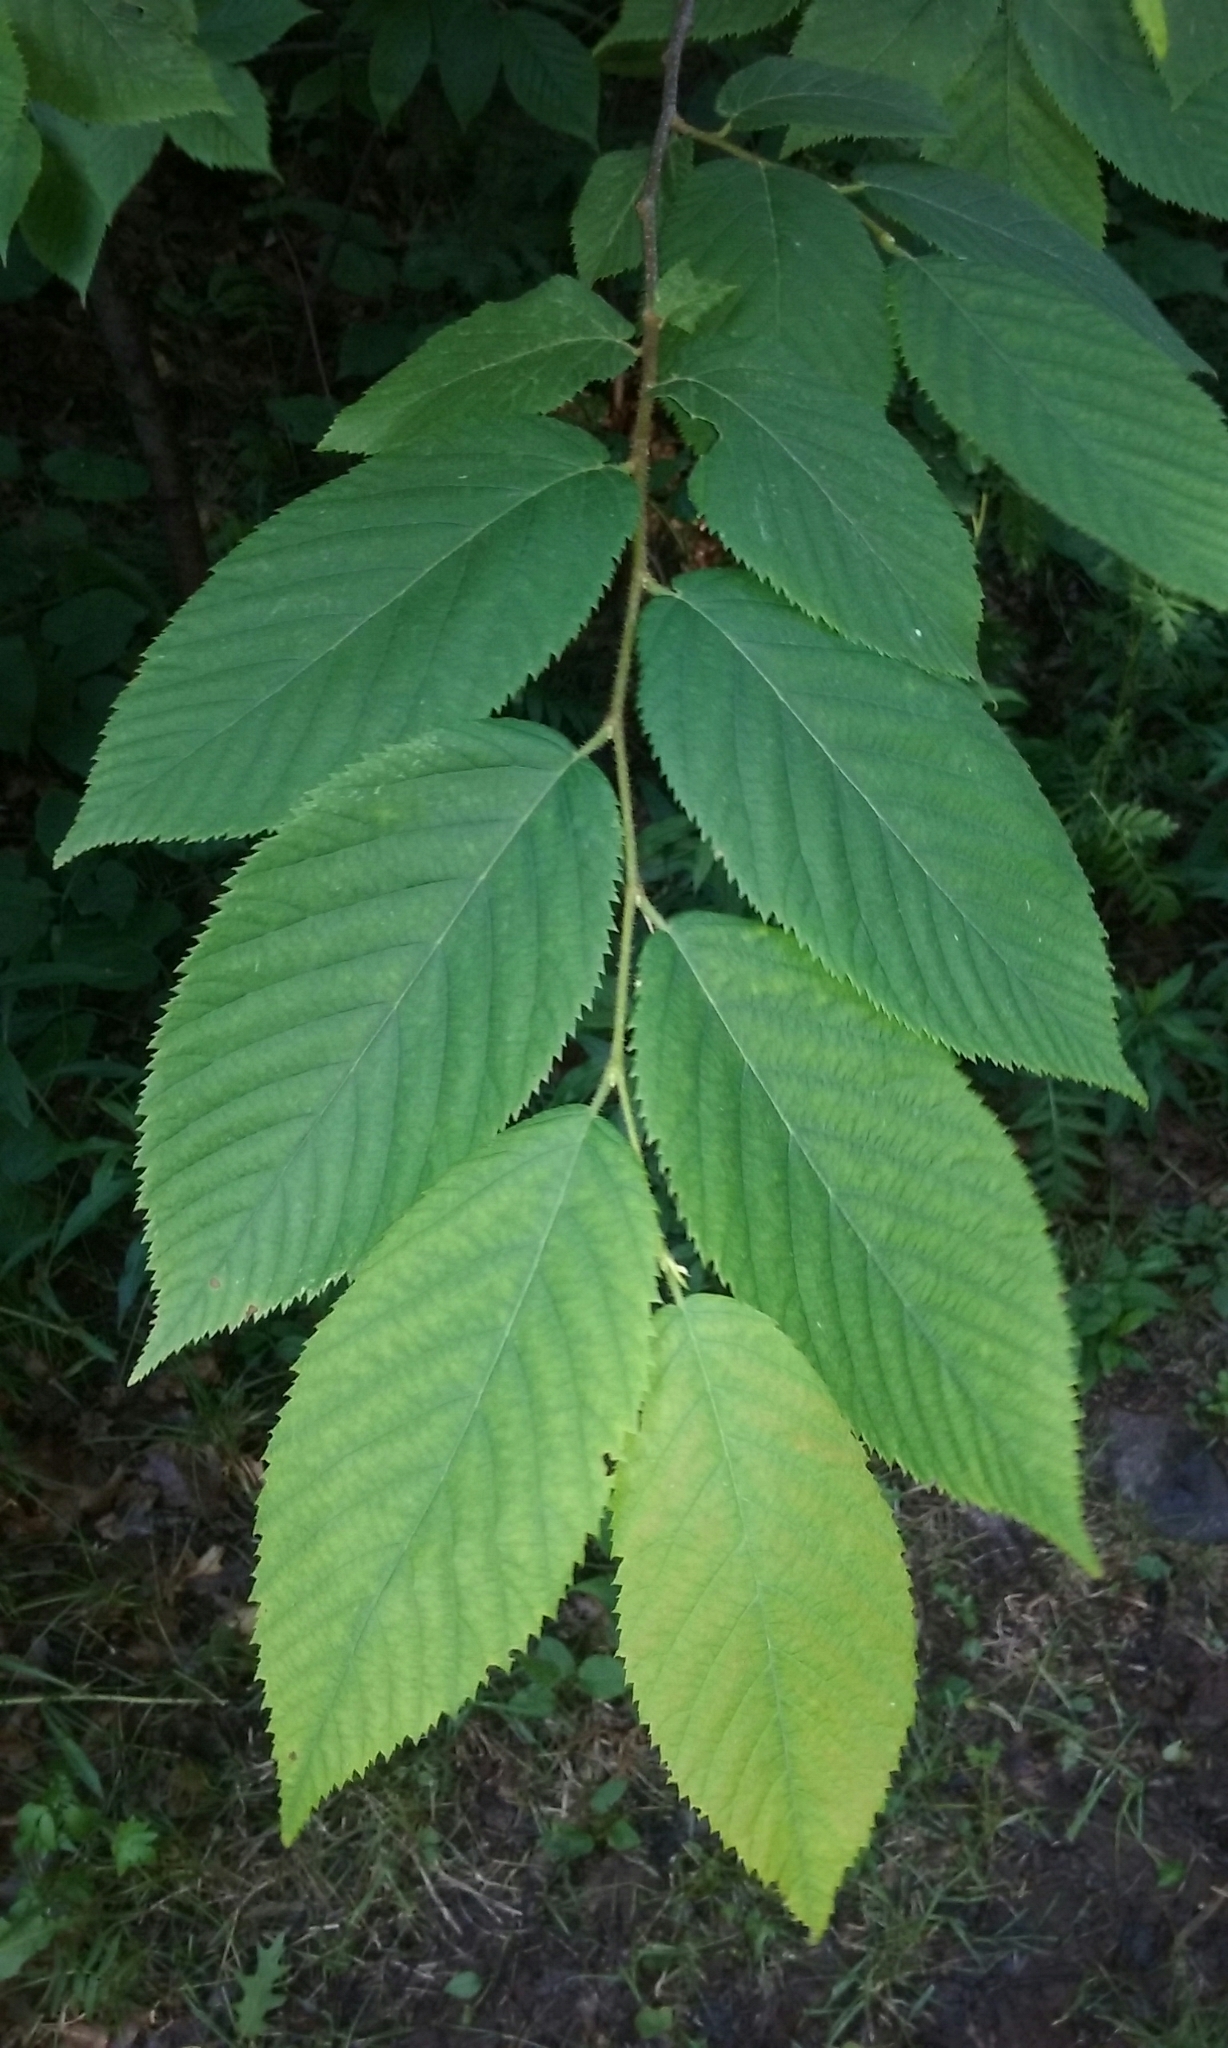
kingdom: Plantae
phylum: Tracheophyta
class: Magnoliopsida
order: Fagales
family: Betulaceae
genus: Ostrya
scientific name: Ostrya virginiana
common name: Ironwood
